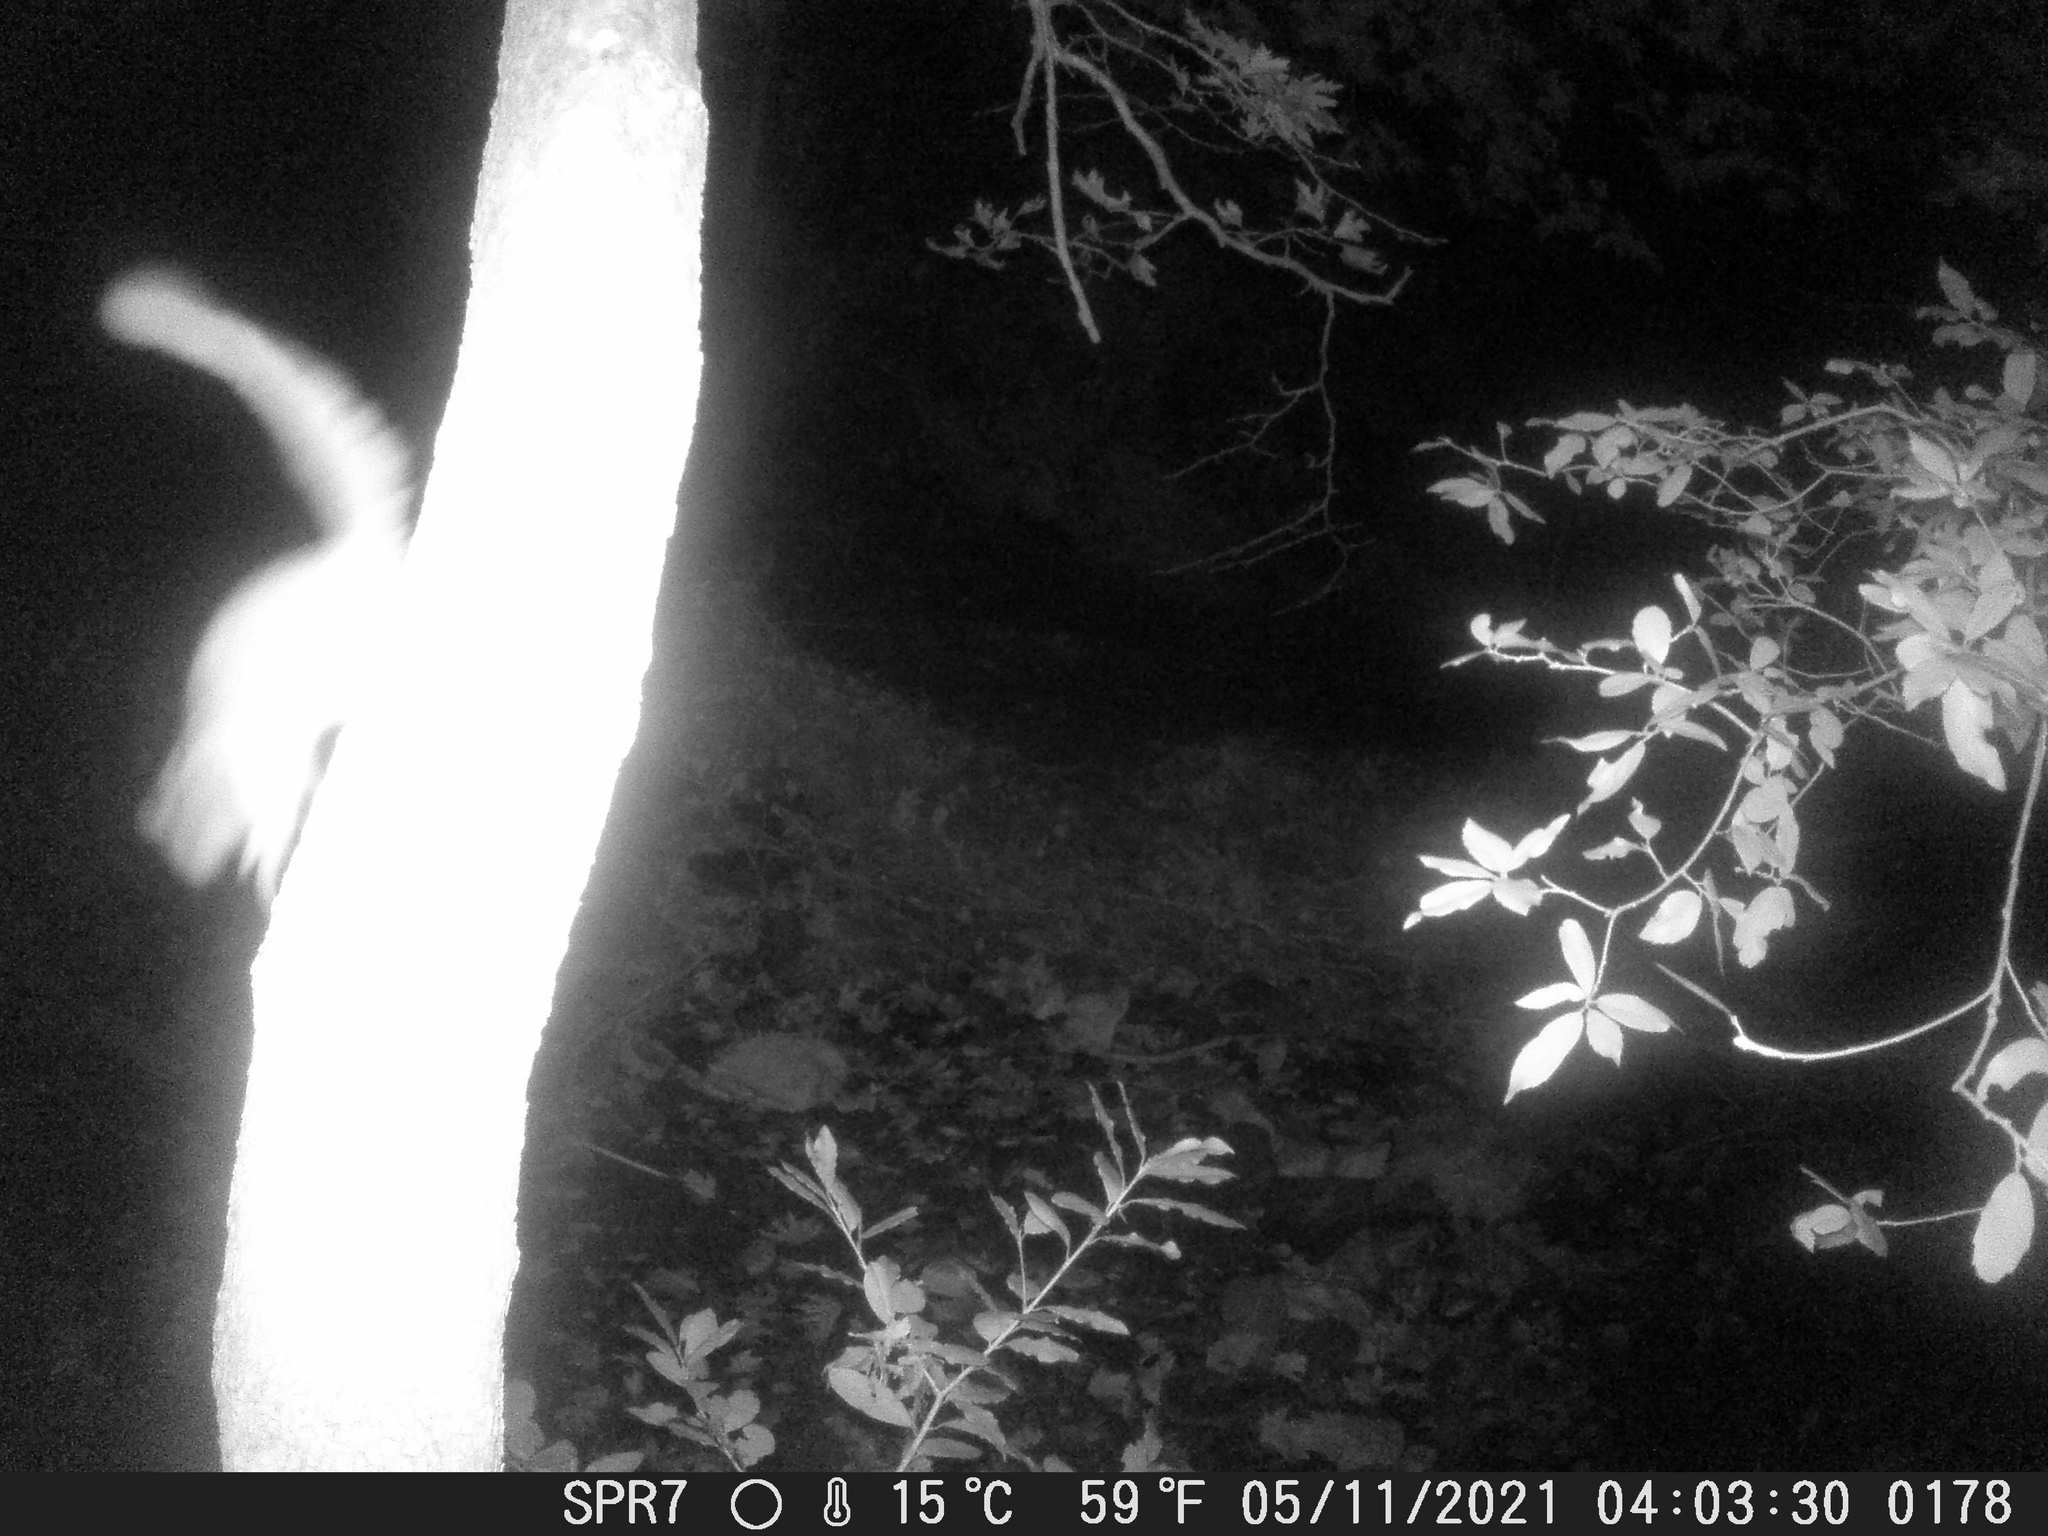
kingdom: Animalia
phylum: Chordata
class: Mammalia
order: Rodentia
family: Gliridae
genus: Glis
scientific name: Glis glis
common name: Fat dormouse
